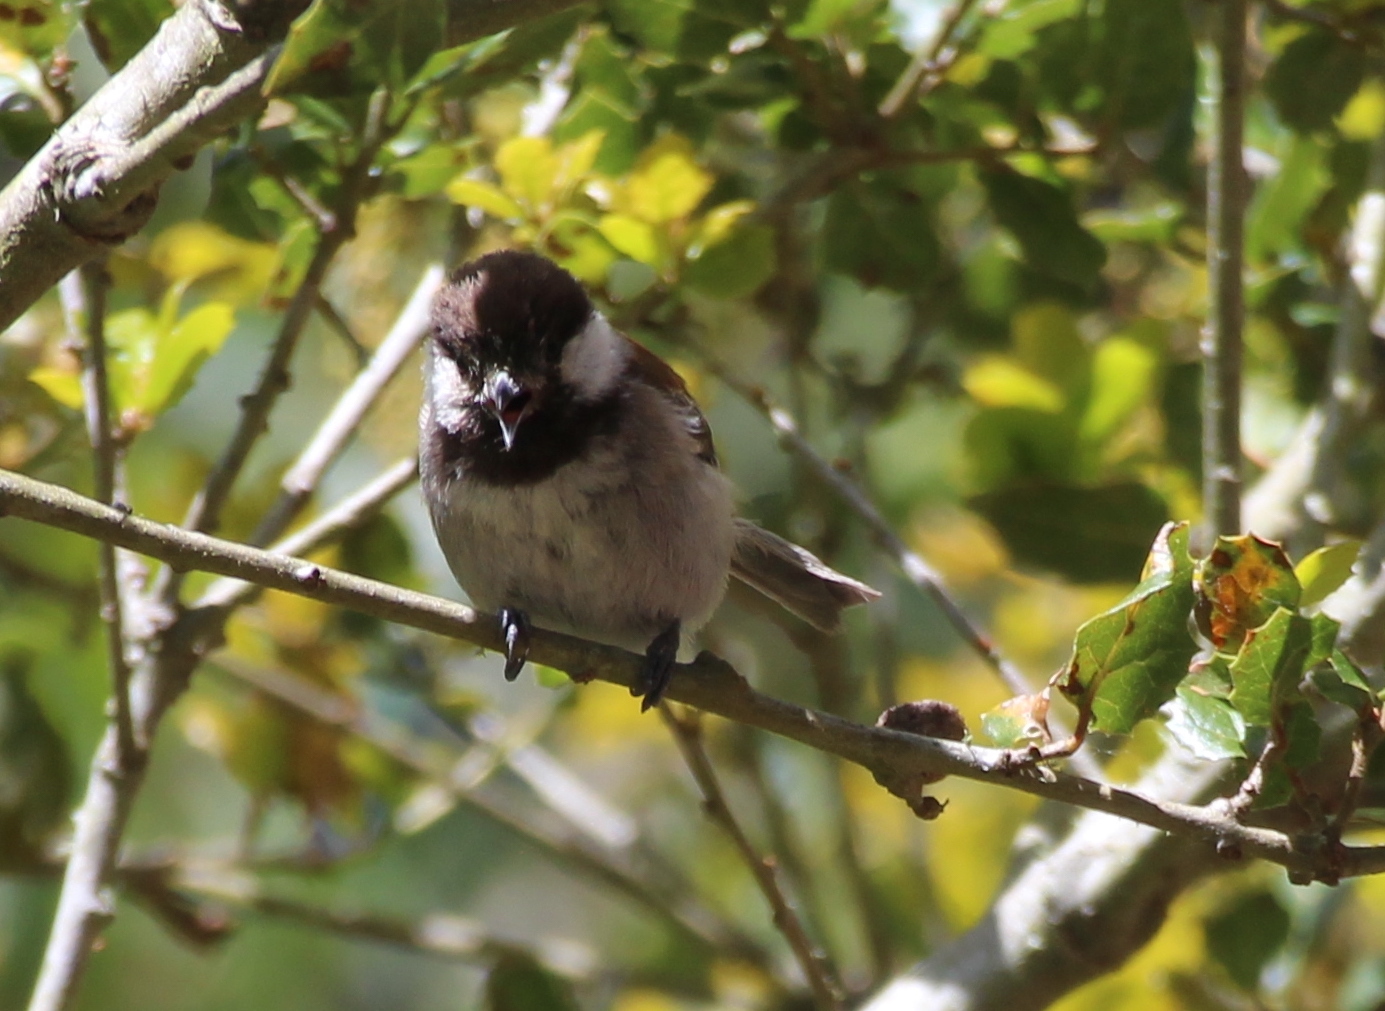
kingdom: Animalia
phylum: Chordata
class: Aves
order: Passeriformes
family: Paridae
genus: Poecile
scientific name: Poecile rufescens
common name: Chestnut-backed chickadee
